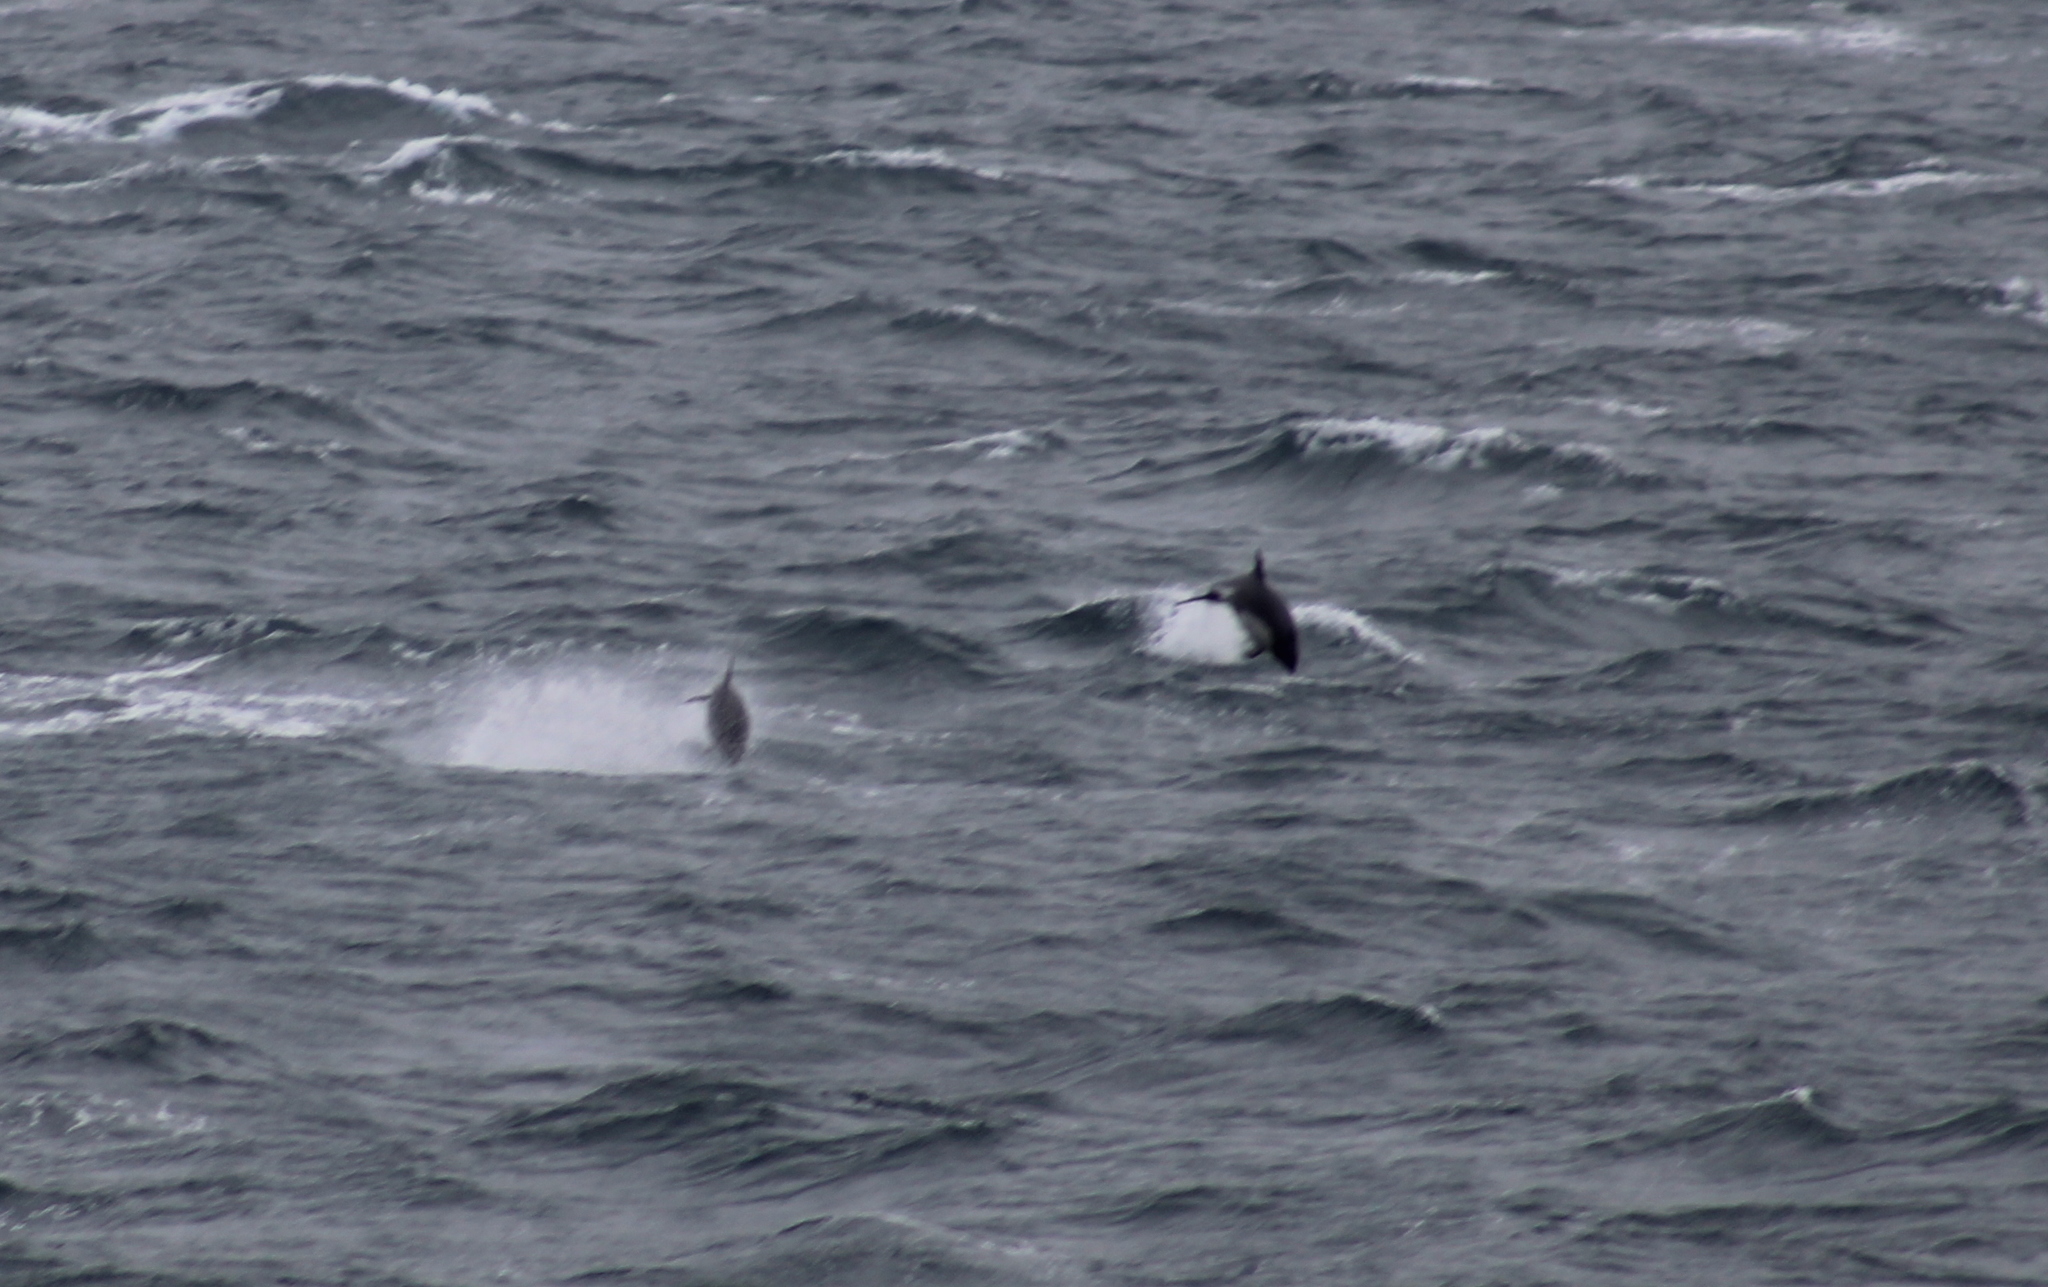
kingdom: Animalia
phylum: Chordata
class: Mammalia
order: Cetacea
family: Delphinidae
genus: Lagenorhynchus
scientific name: Lagenorhynchus australis
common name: Peale's dolphin
